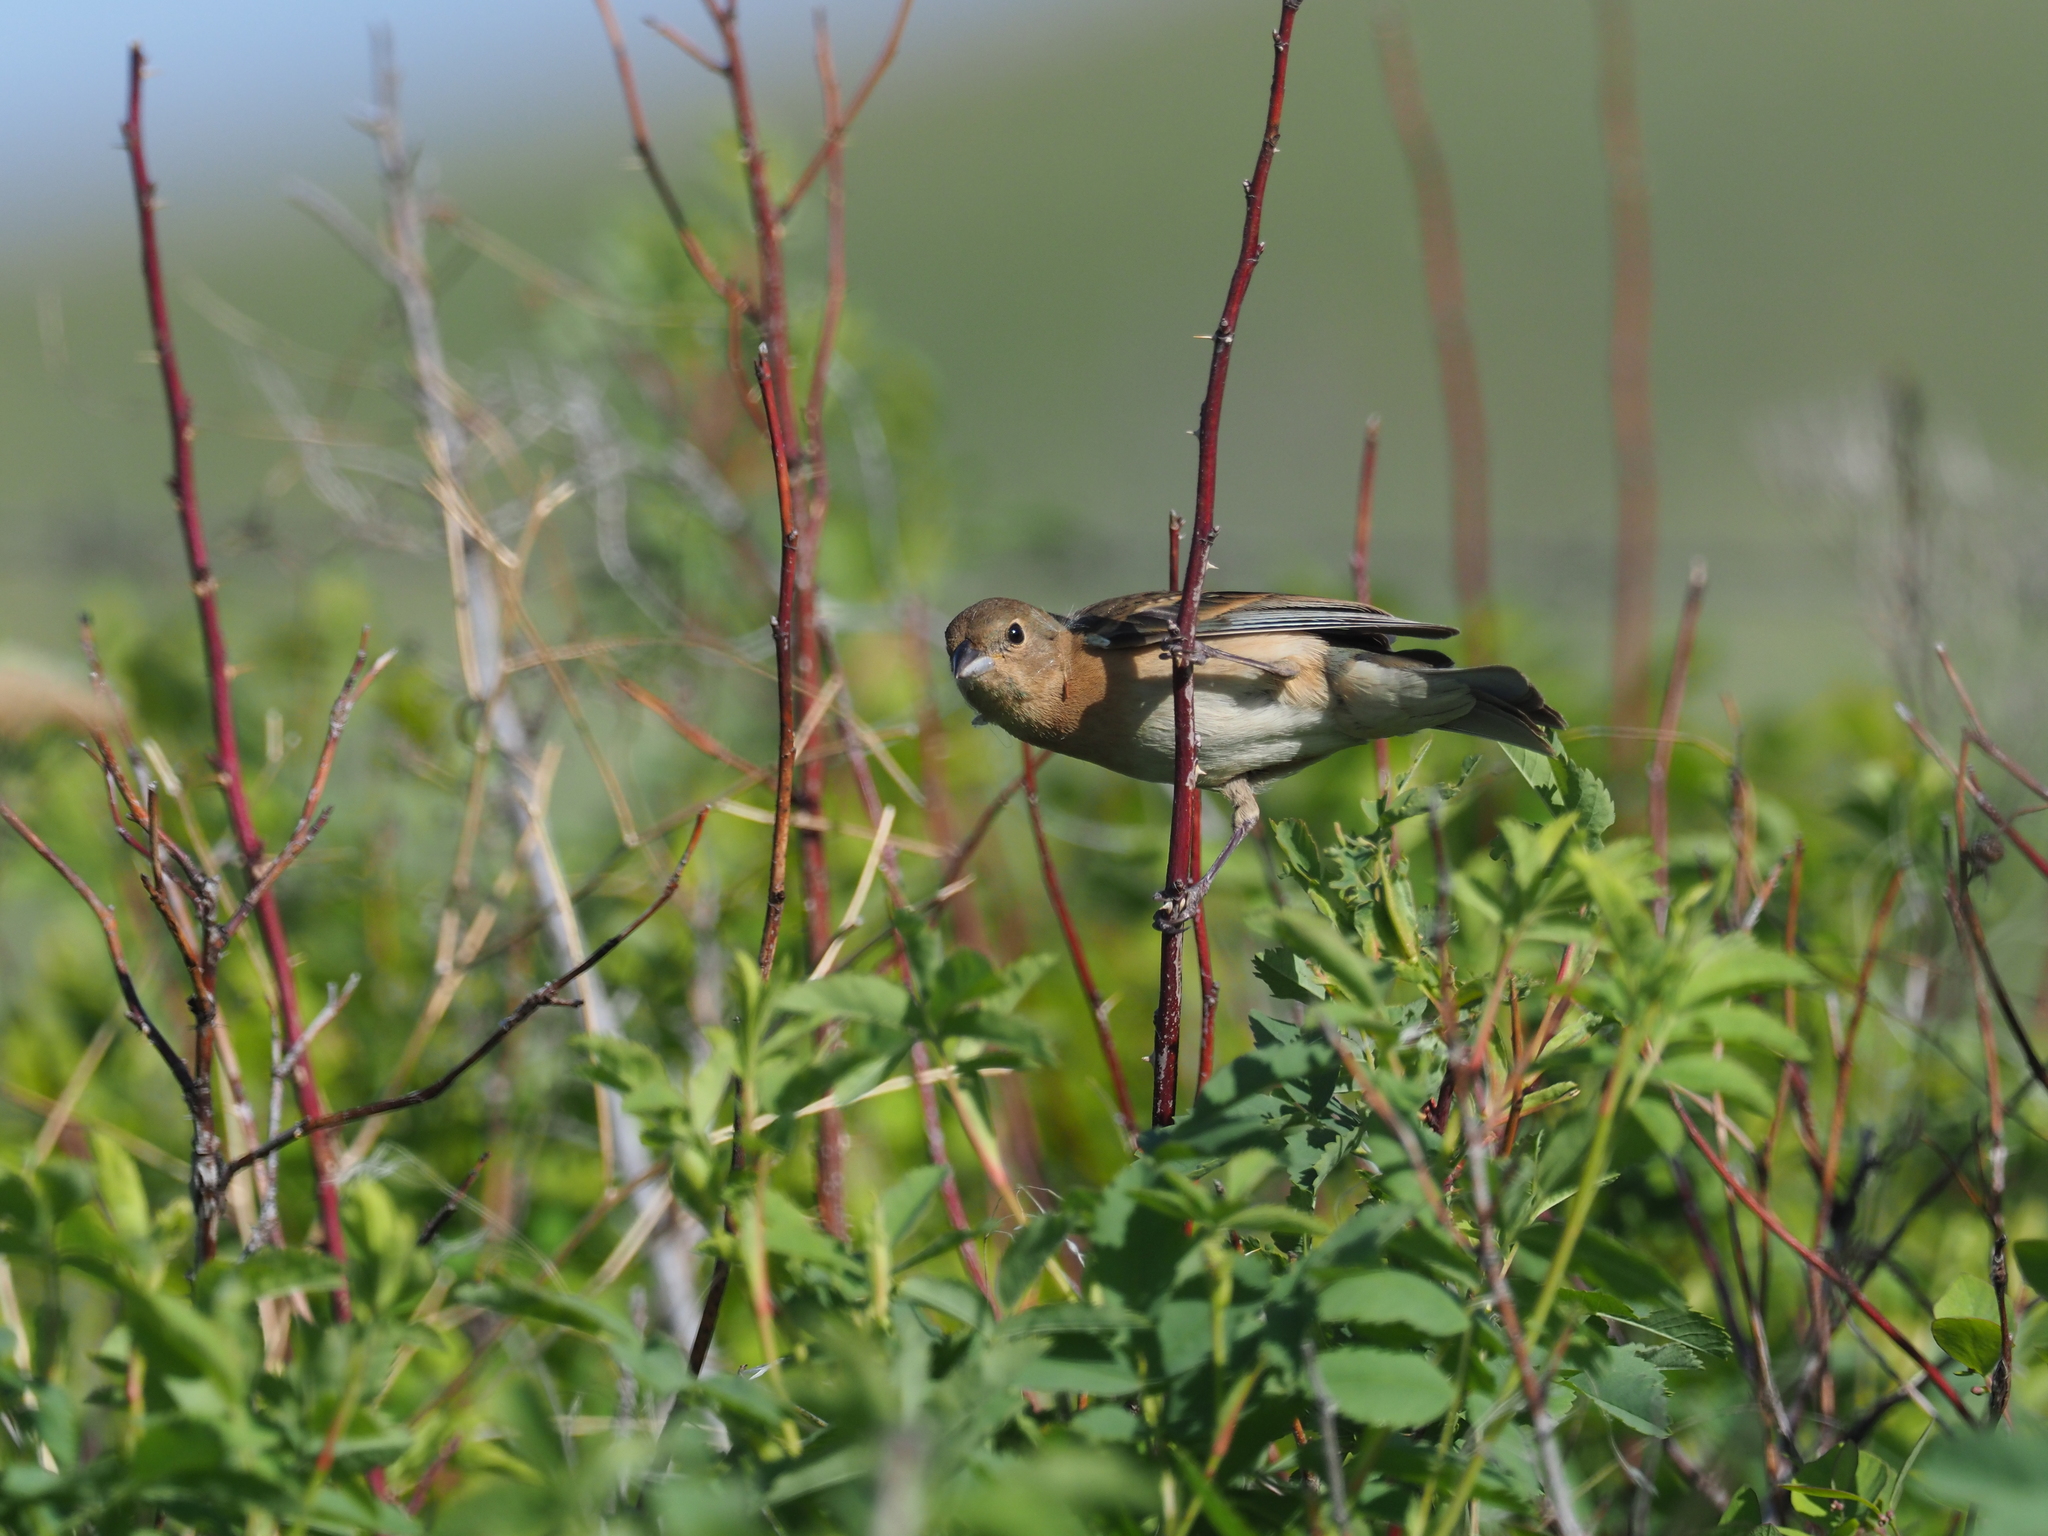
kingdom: Animalia
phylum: Chordata
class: Aves
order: Passeriformes
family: Cardinalidae
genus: Passerina
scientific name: Passerina amoena
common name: Lazuli bunting
